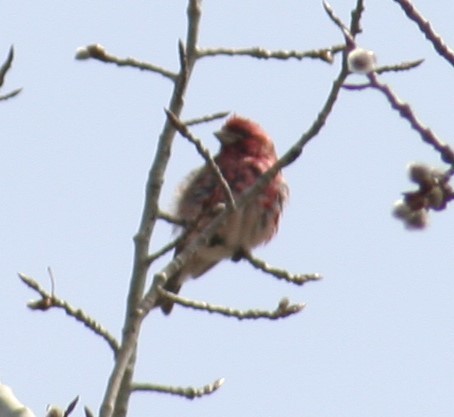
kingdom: Animalia
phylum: Chordata
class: Aves
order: Passeriformes
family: Fringillidae
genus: Haemorhous
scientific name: Haemorhous purpureus
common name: Purple finch
